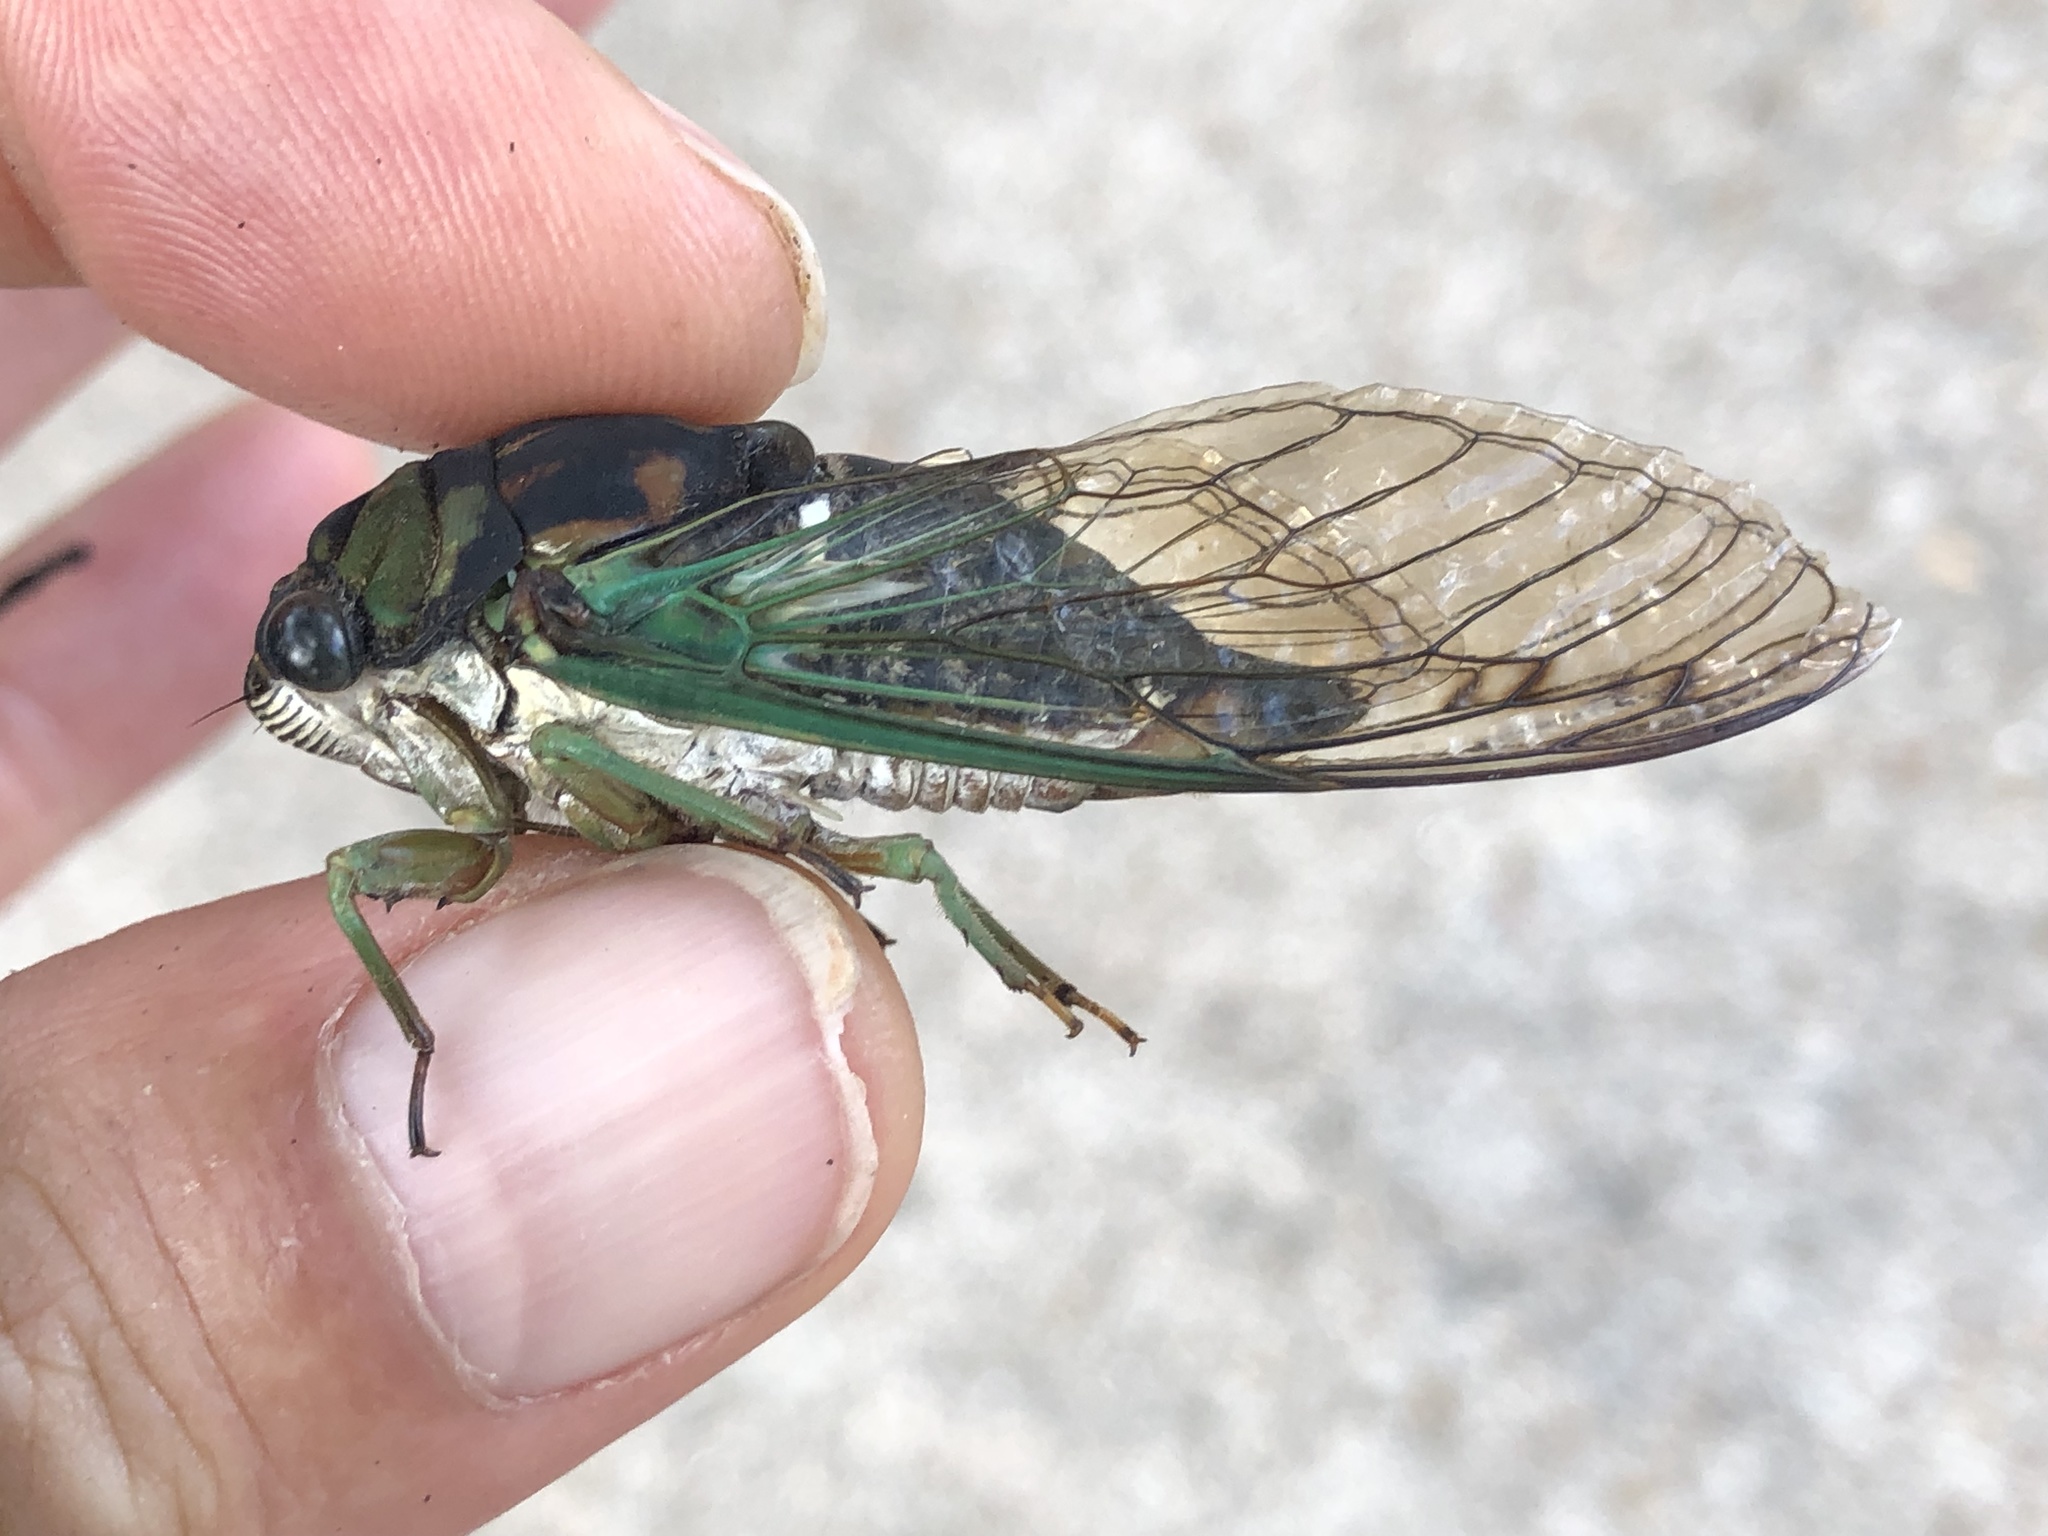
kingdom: Animalia
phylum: Arthropoda
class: Insecta
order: Hemiptera
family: Cicadidae
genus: Neotibicen
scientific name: Neotibicen tibicen
